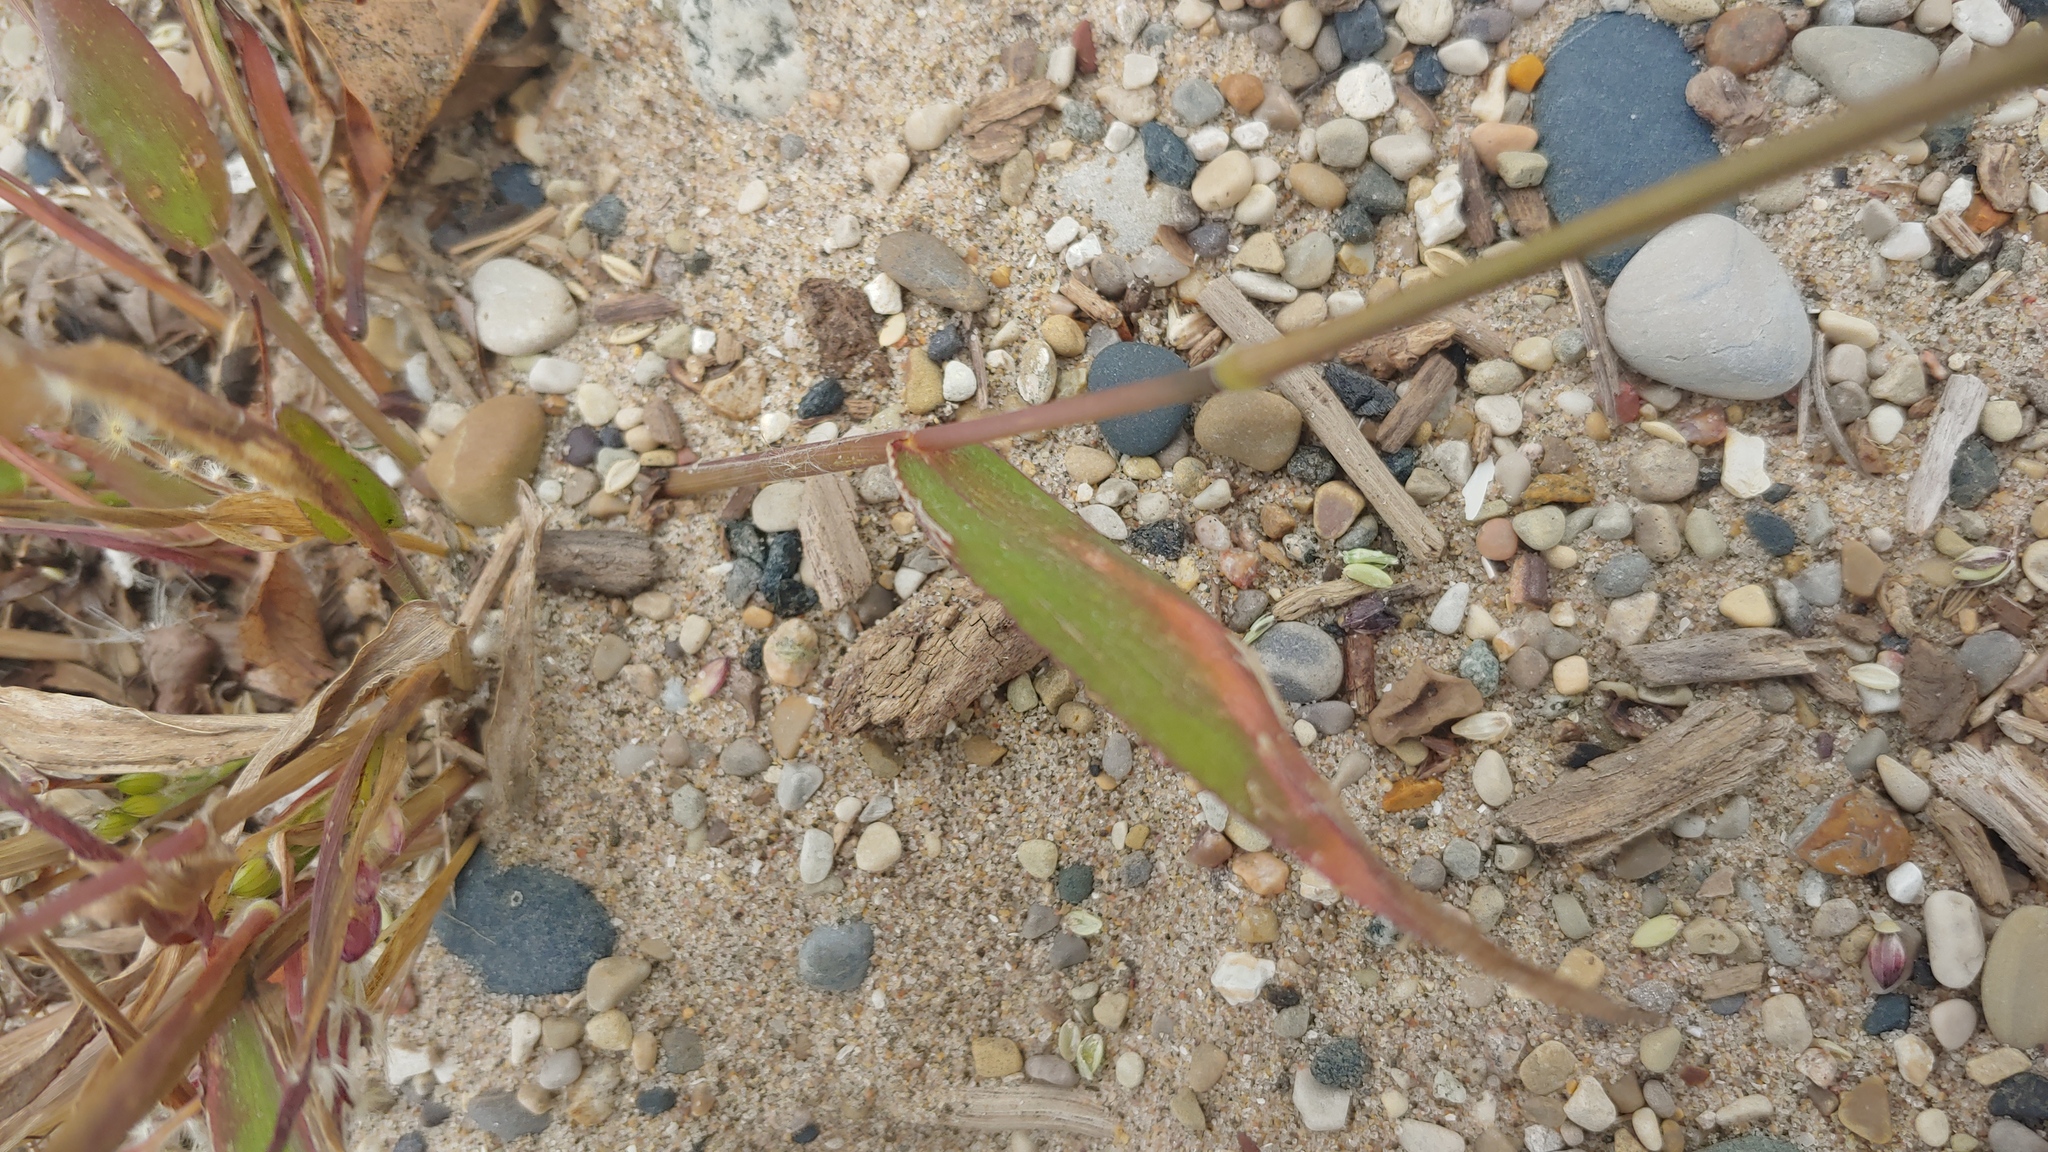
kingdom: Plantae
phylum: Tracheophyta
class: Liliopsida
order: Poales
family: Poaceae
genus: Eriochloa
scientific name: Eriochloa villosa
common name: Hairy cupgrass
